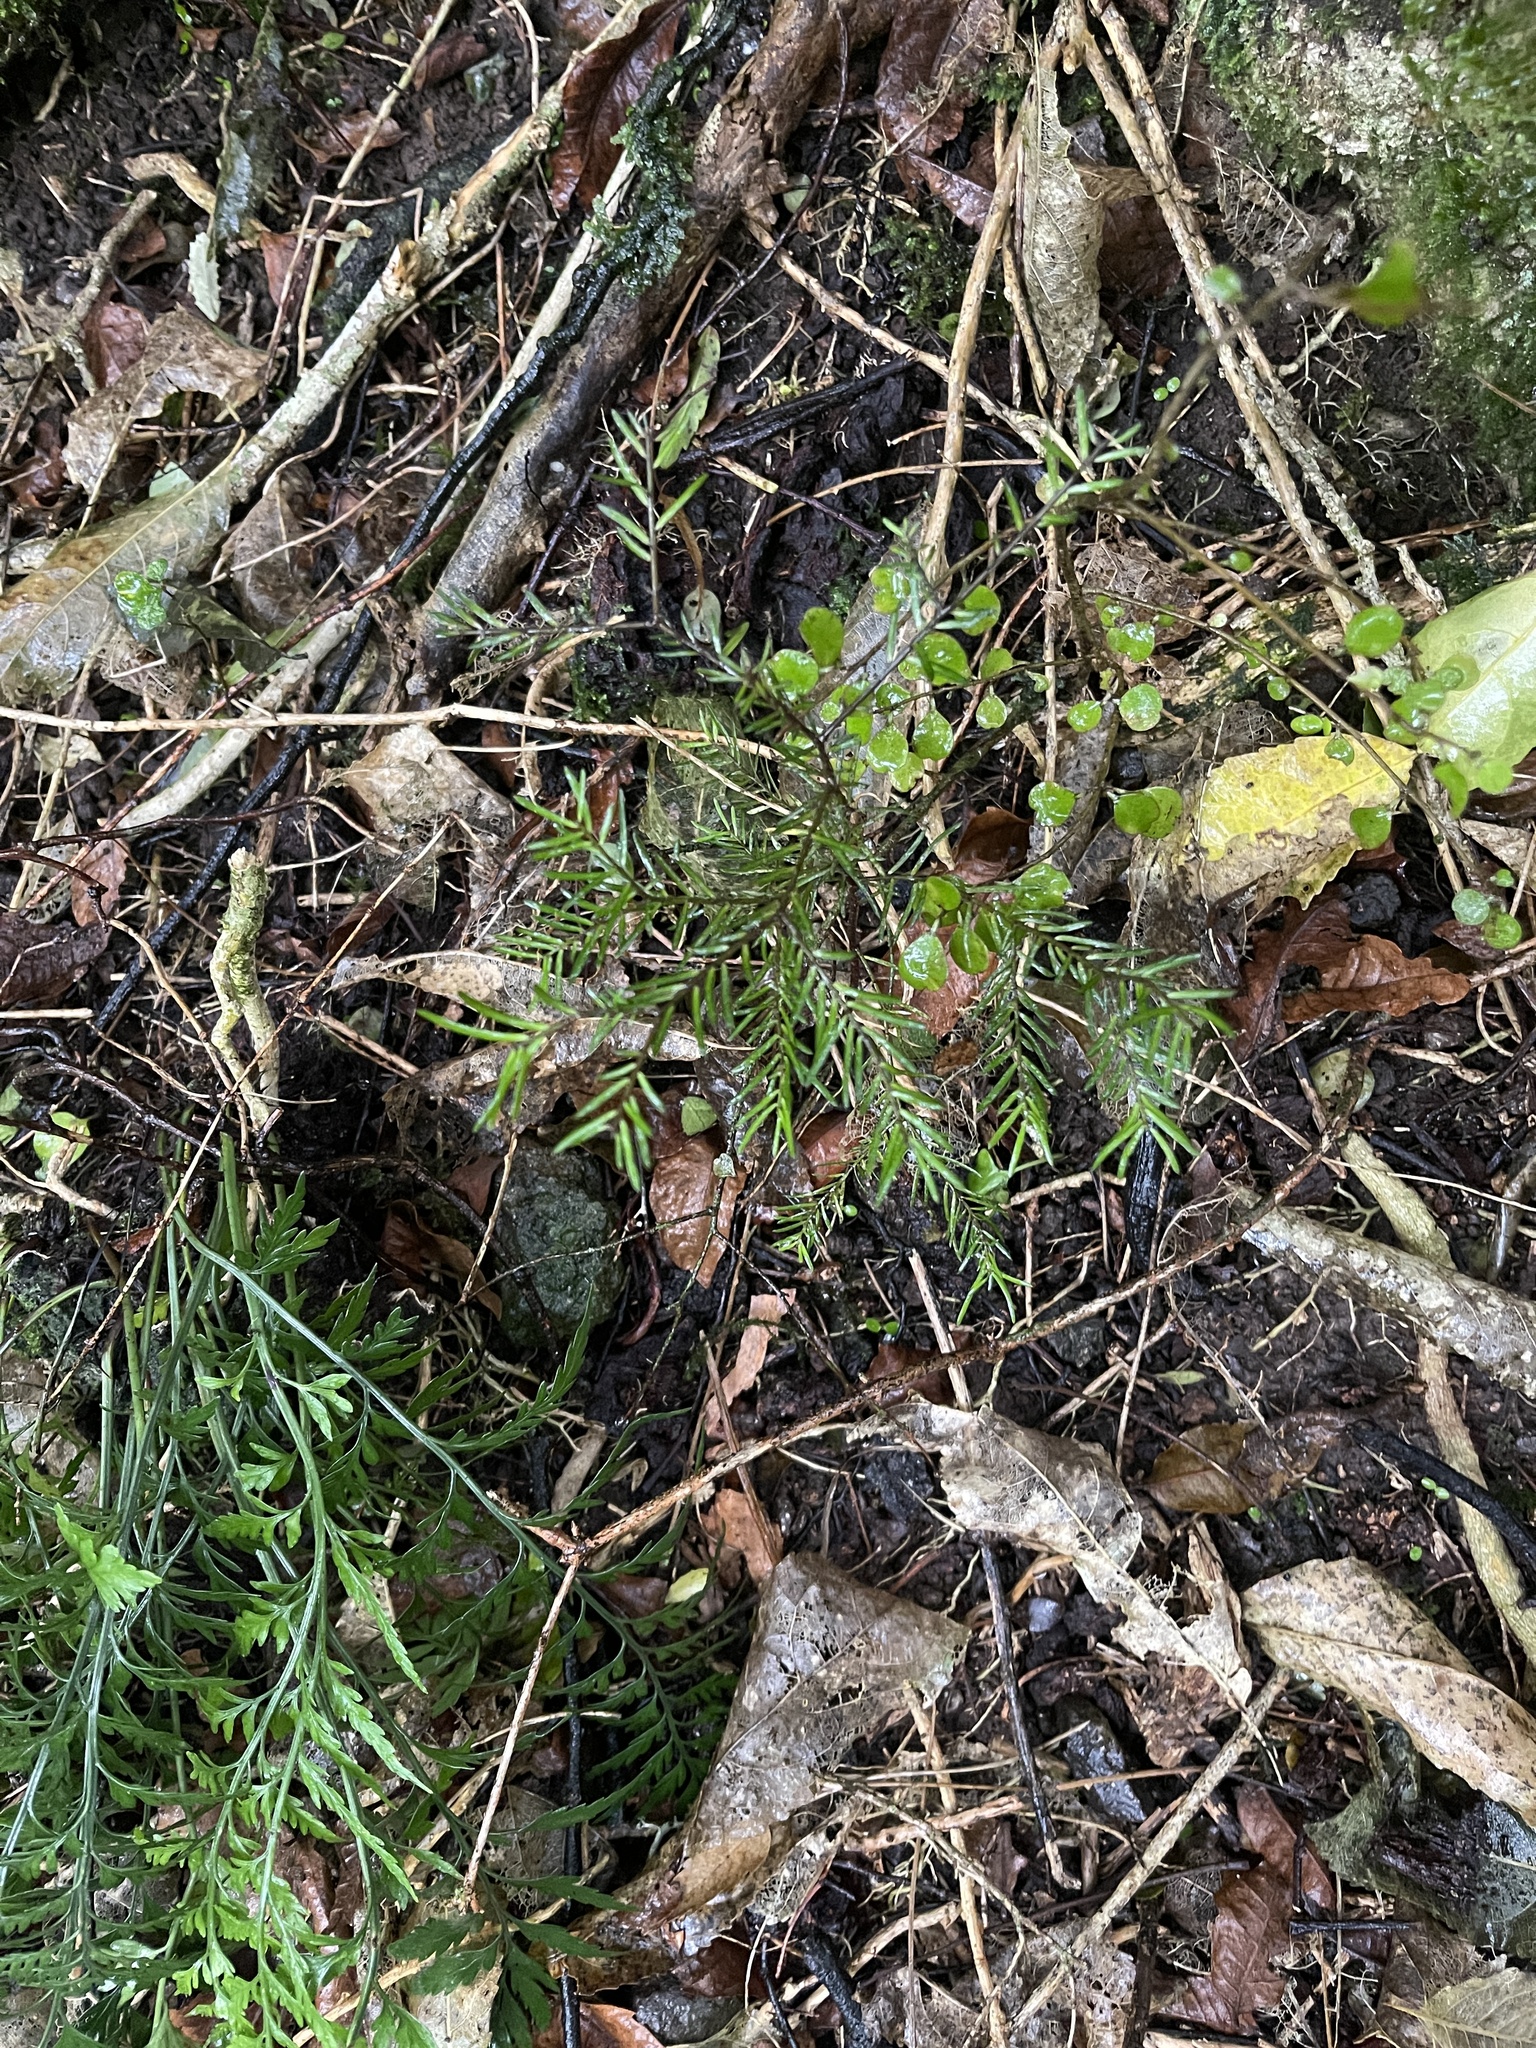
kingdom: Plantae
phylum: Tracheophyta
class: Pinopsida
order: Pinales
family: Podocarpaceae
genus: Prumnopitys
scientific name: Prumnopitys taxifolia
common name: Matai
